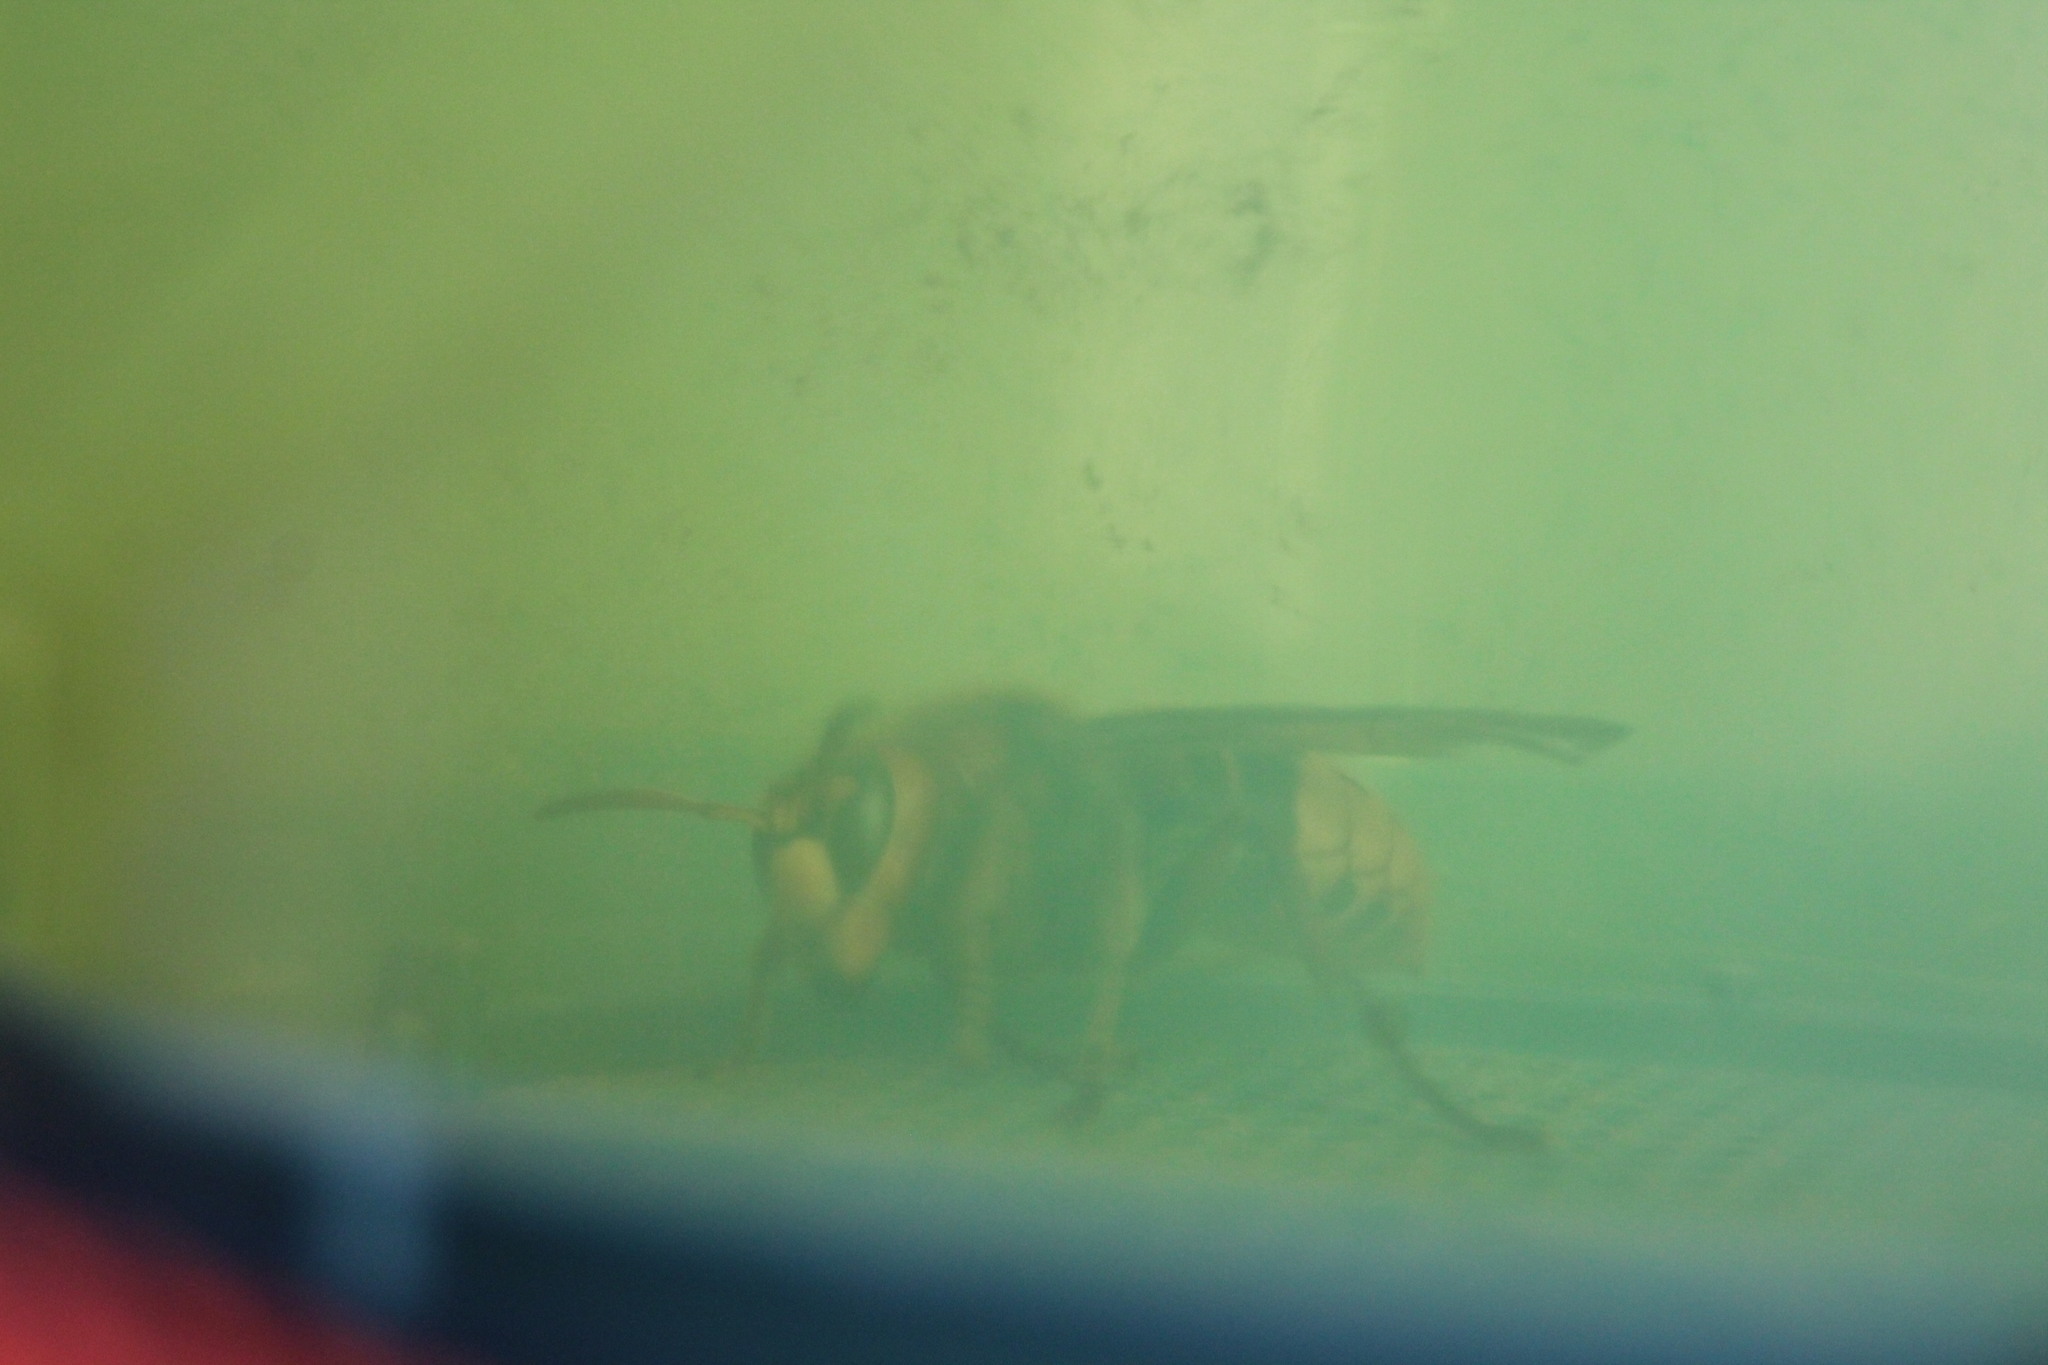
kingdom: Animalia
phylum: Arthropoda
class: Insecta
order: Hymenoptera
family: Vespidae
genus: Vespa
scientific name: Vespa crabro
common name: Hornet
